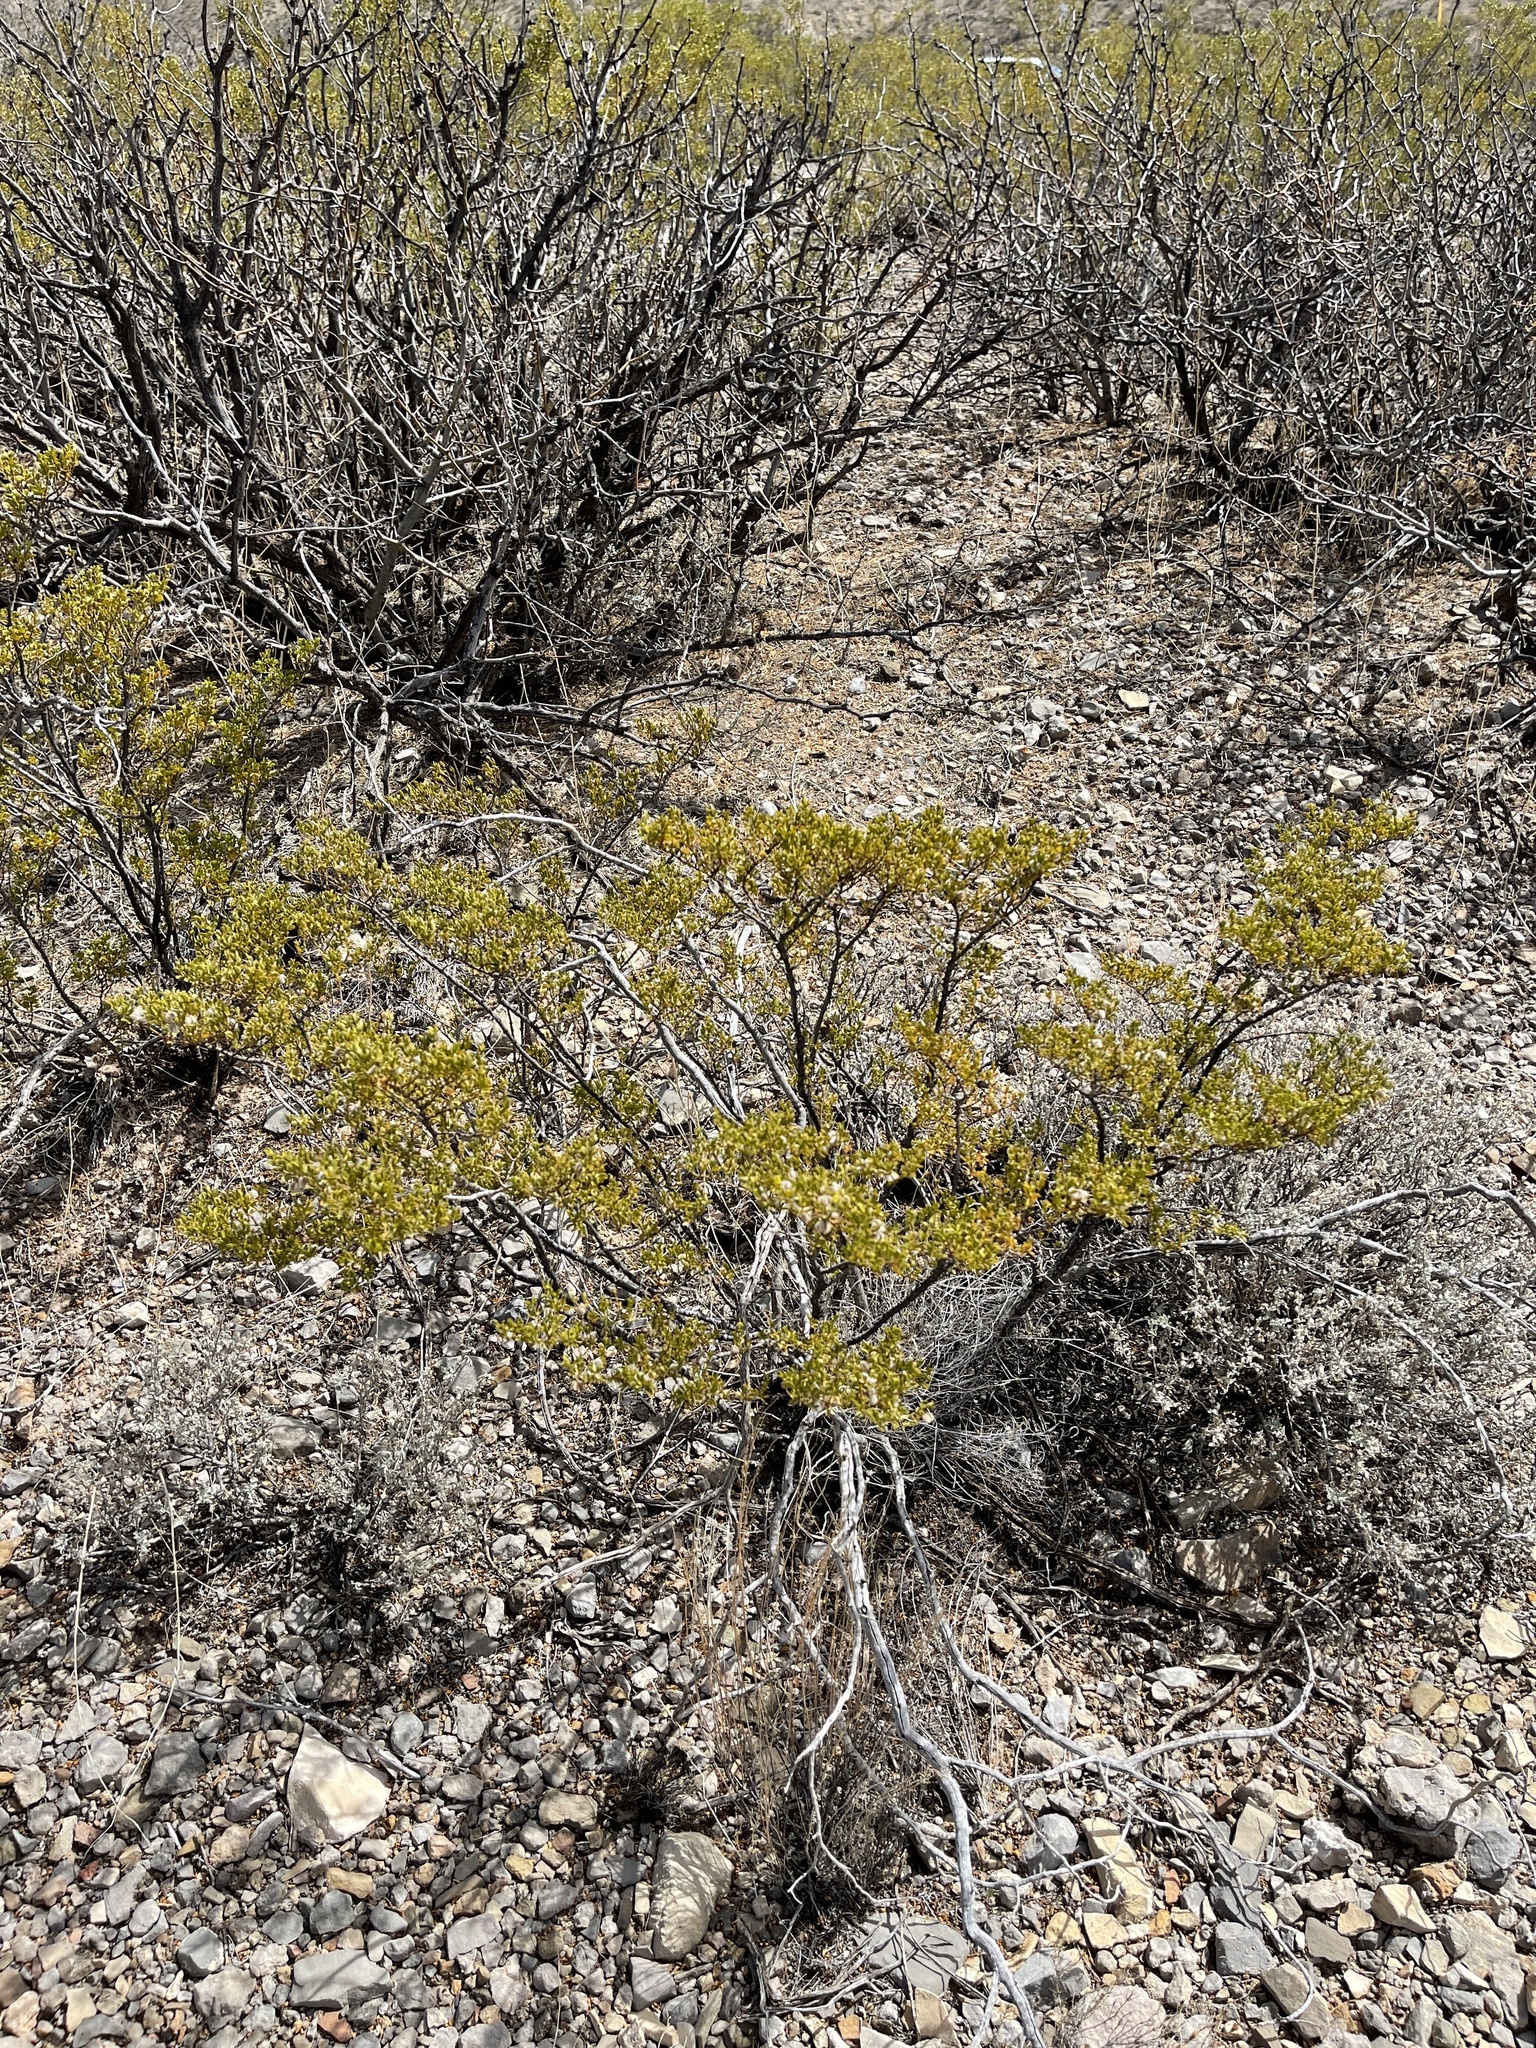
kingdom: Plantae
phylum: Tracheophyta
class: Magnoliopsida
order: Zygophyllales
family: Zygophyllaceae
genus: Larrea
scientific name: Larrea tridentata
